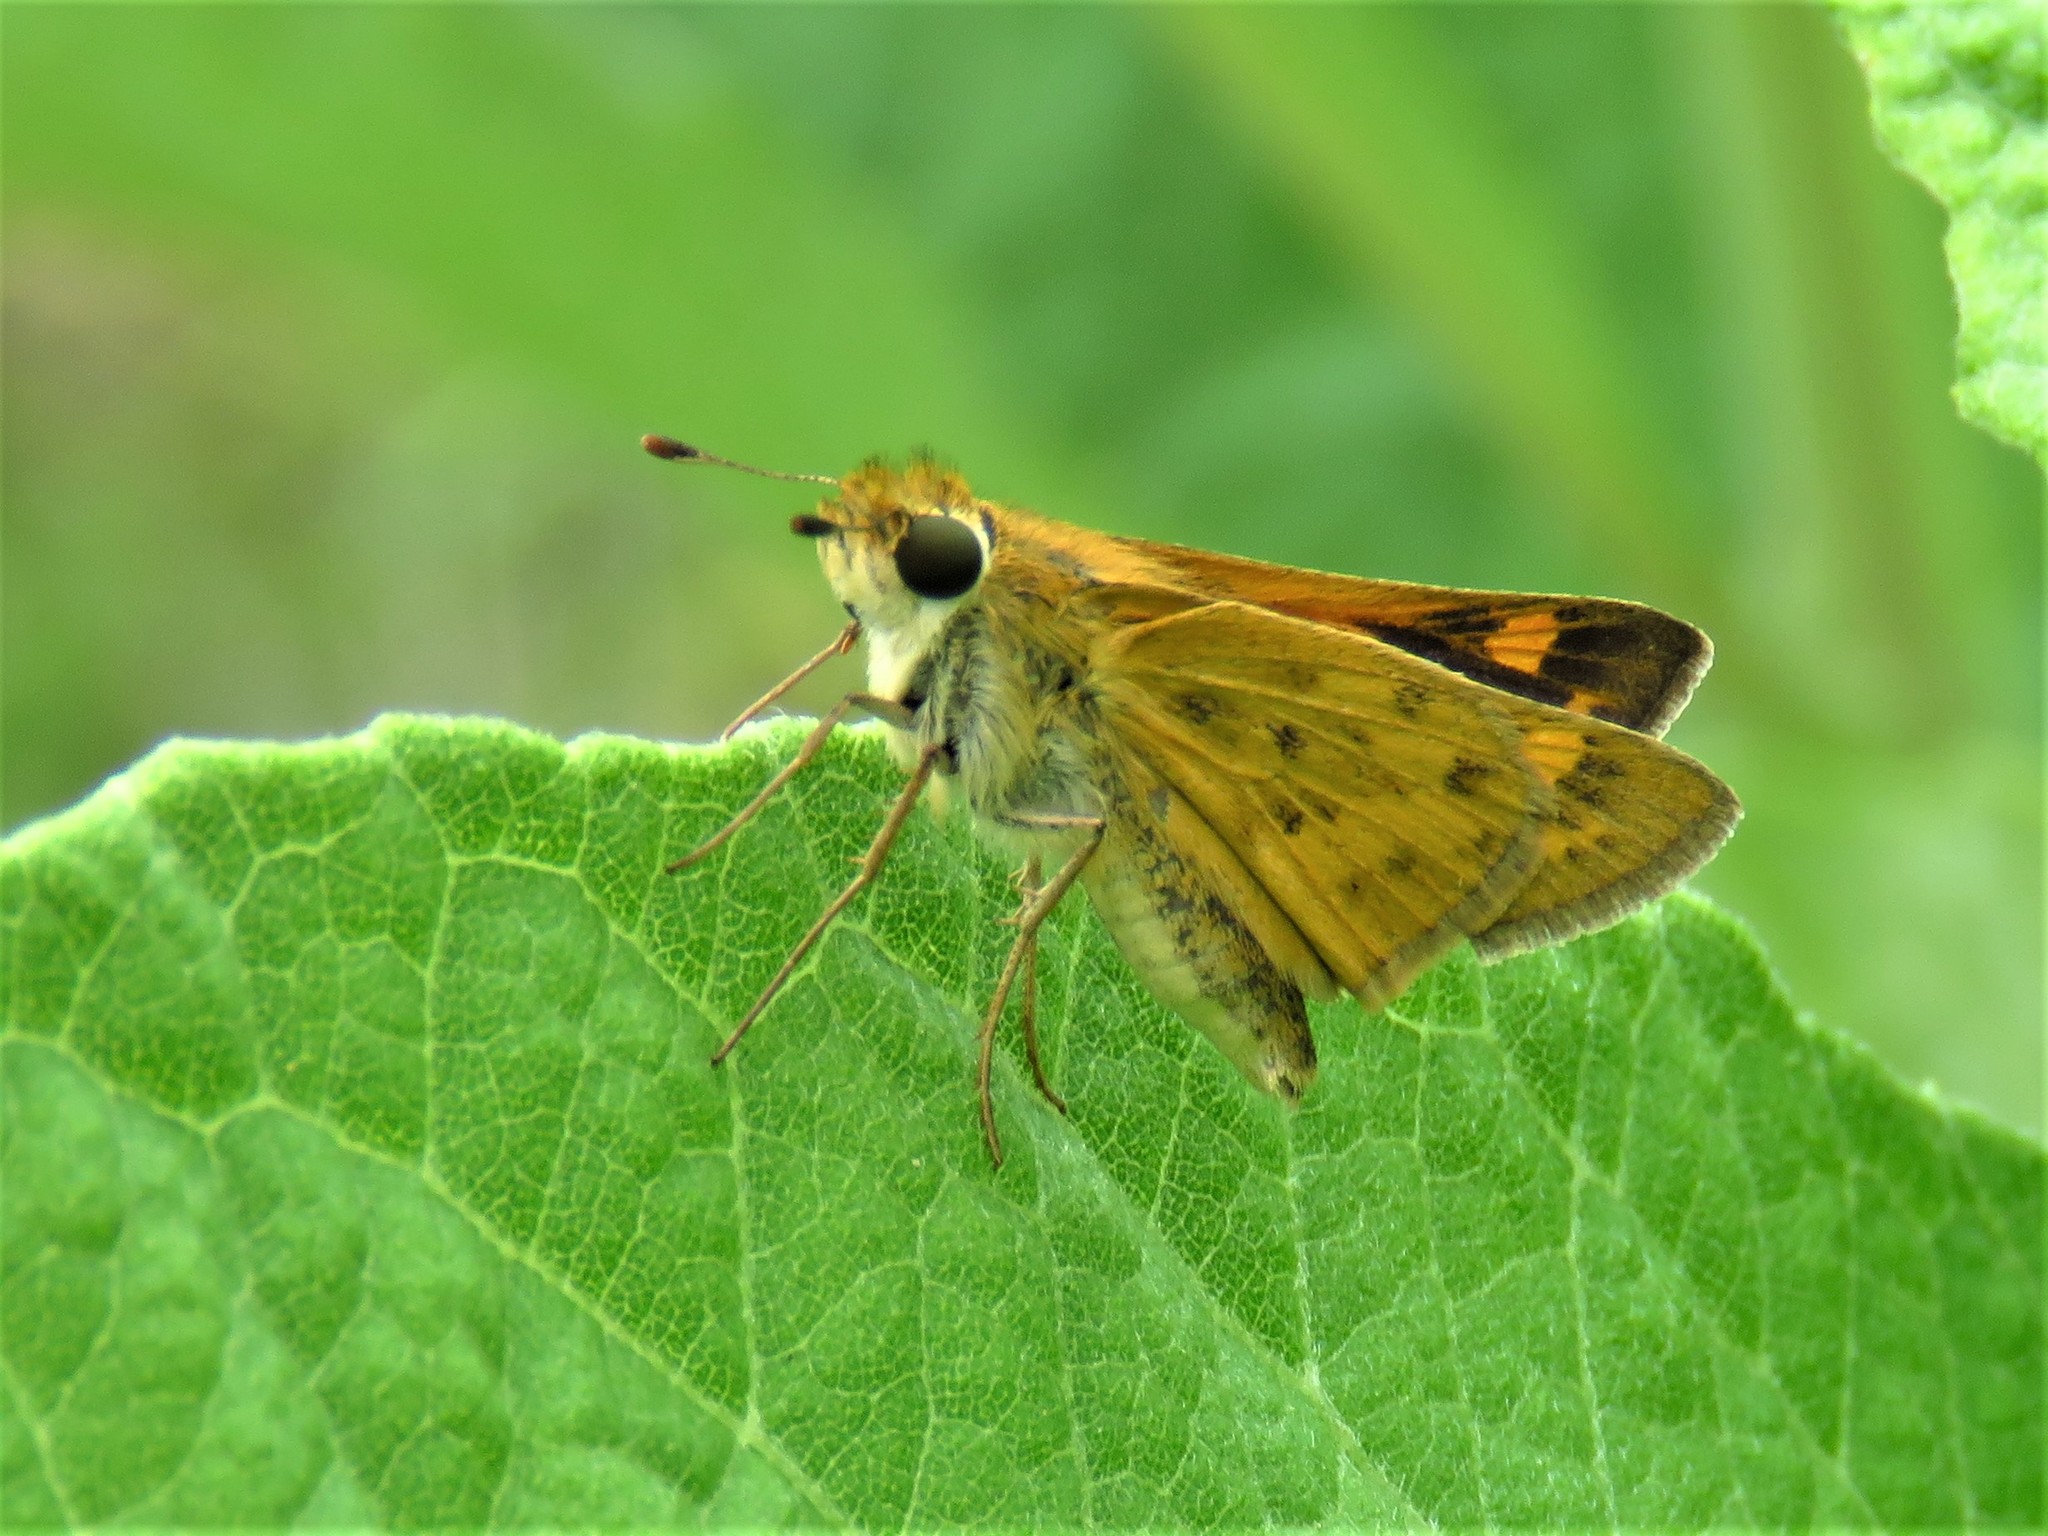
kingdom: Animalia
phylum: Arthropoda
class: Insecta
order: Lepidoptera
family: Hesperiidae
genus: Hylephila
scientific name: Hylephila phyleus
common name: Fiery skipper
